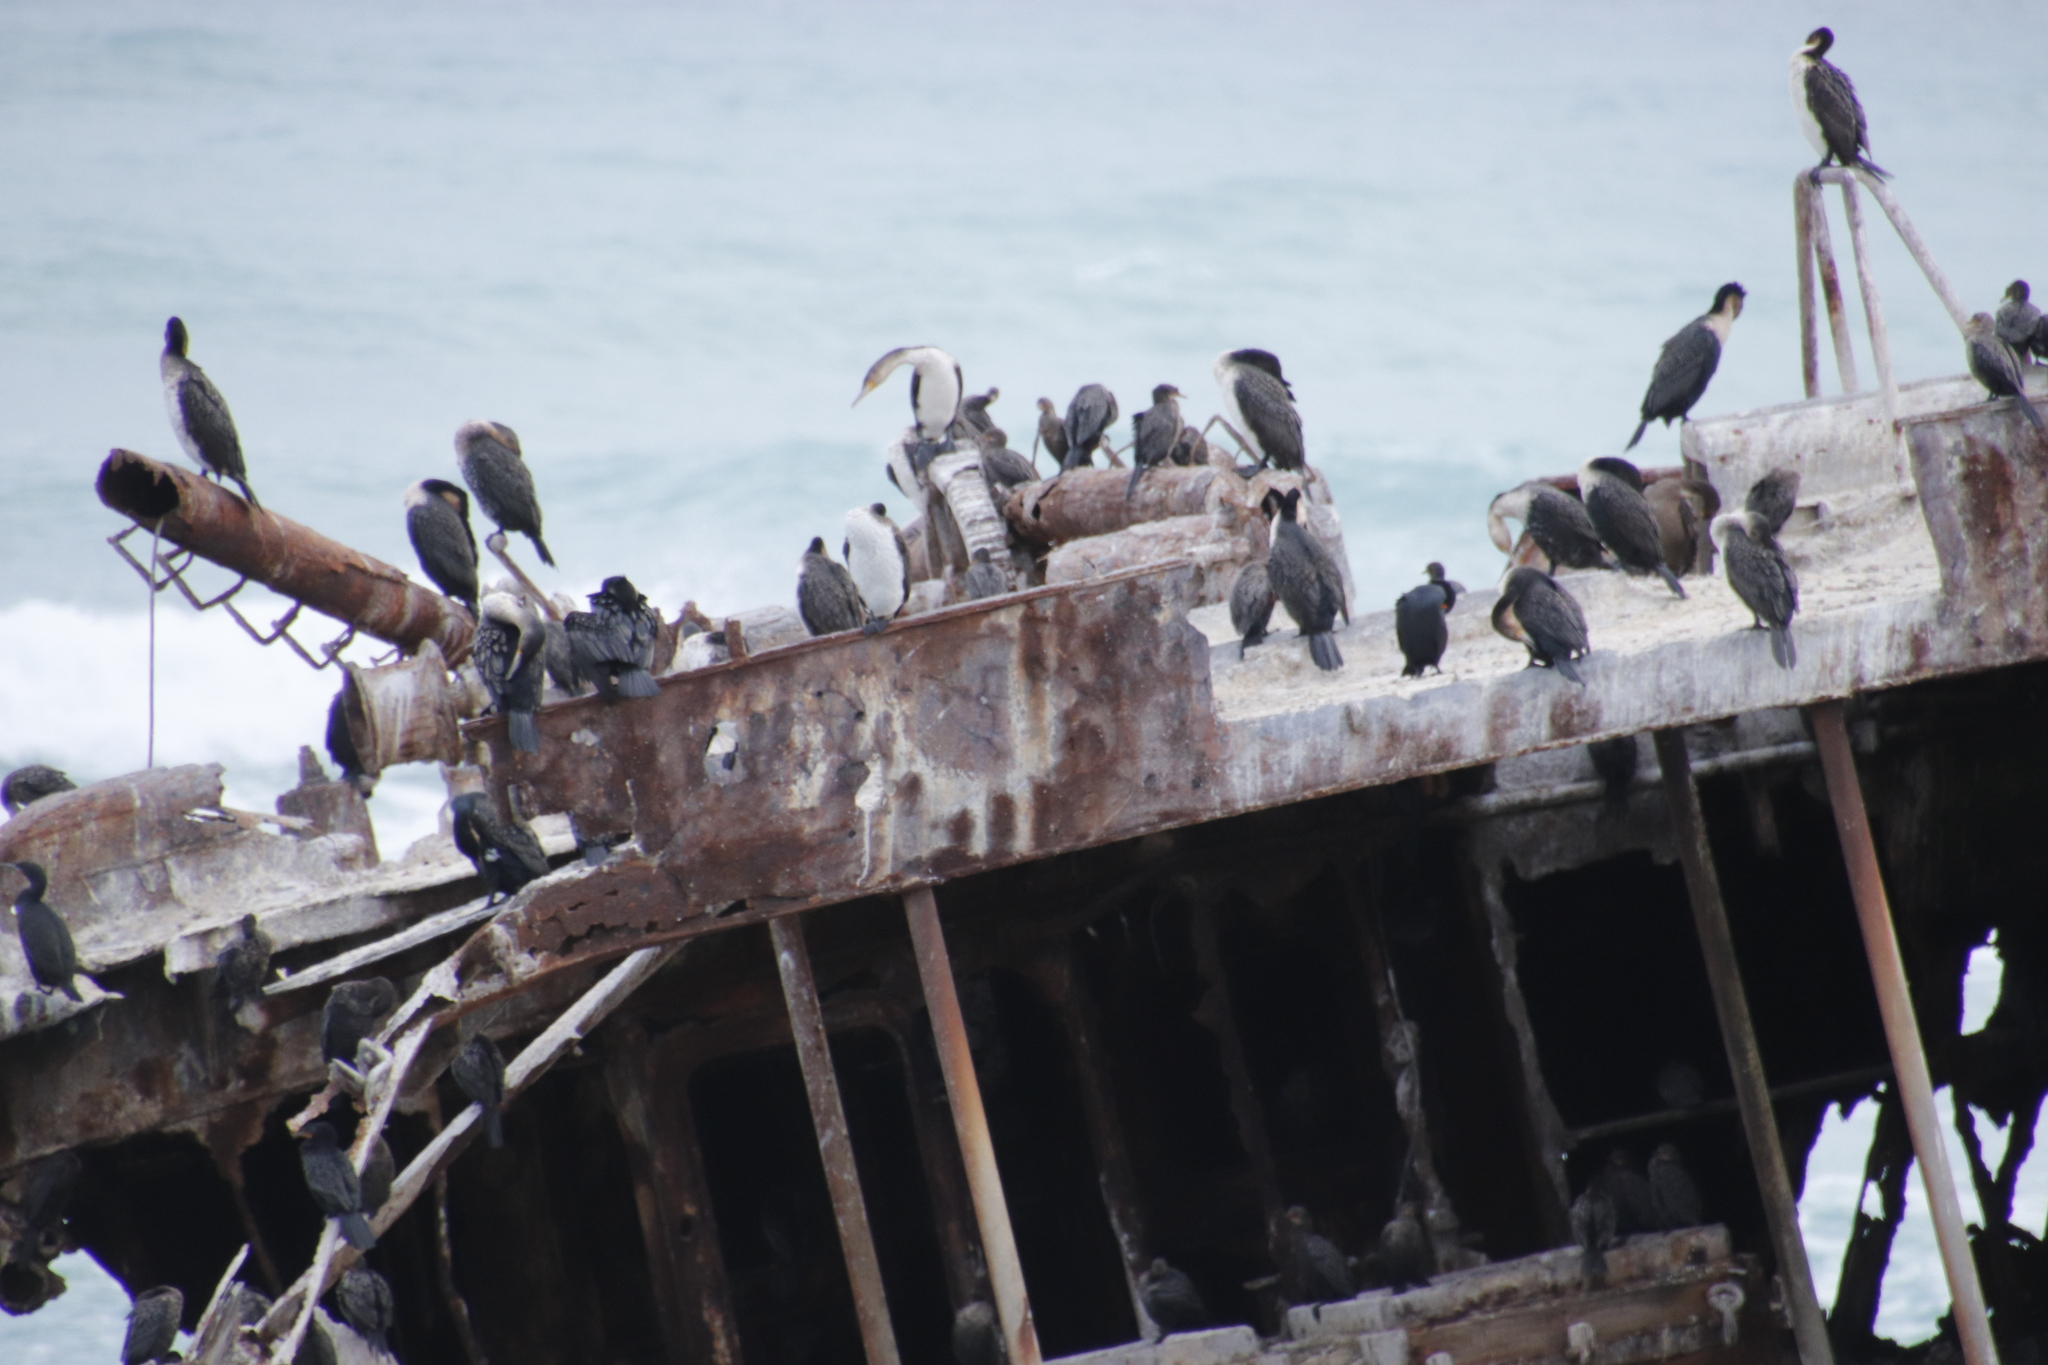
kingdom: Animalia
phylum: Chordata
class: Aves
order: Suliformes
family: Phalacrocoracidae
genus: Phalacrocorax
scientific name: Phalacrocorax carbo
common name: Great cormorant
